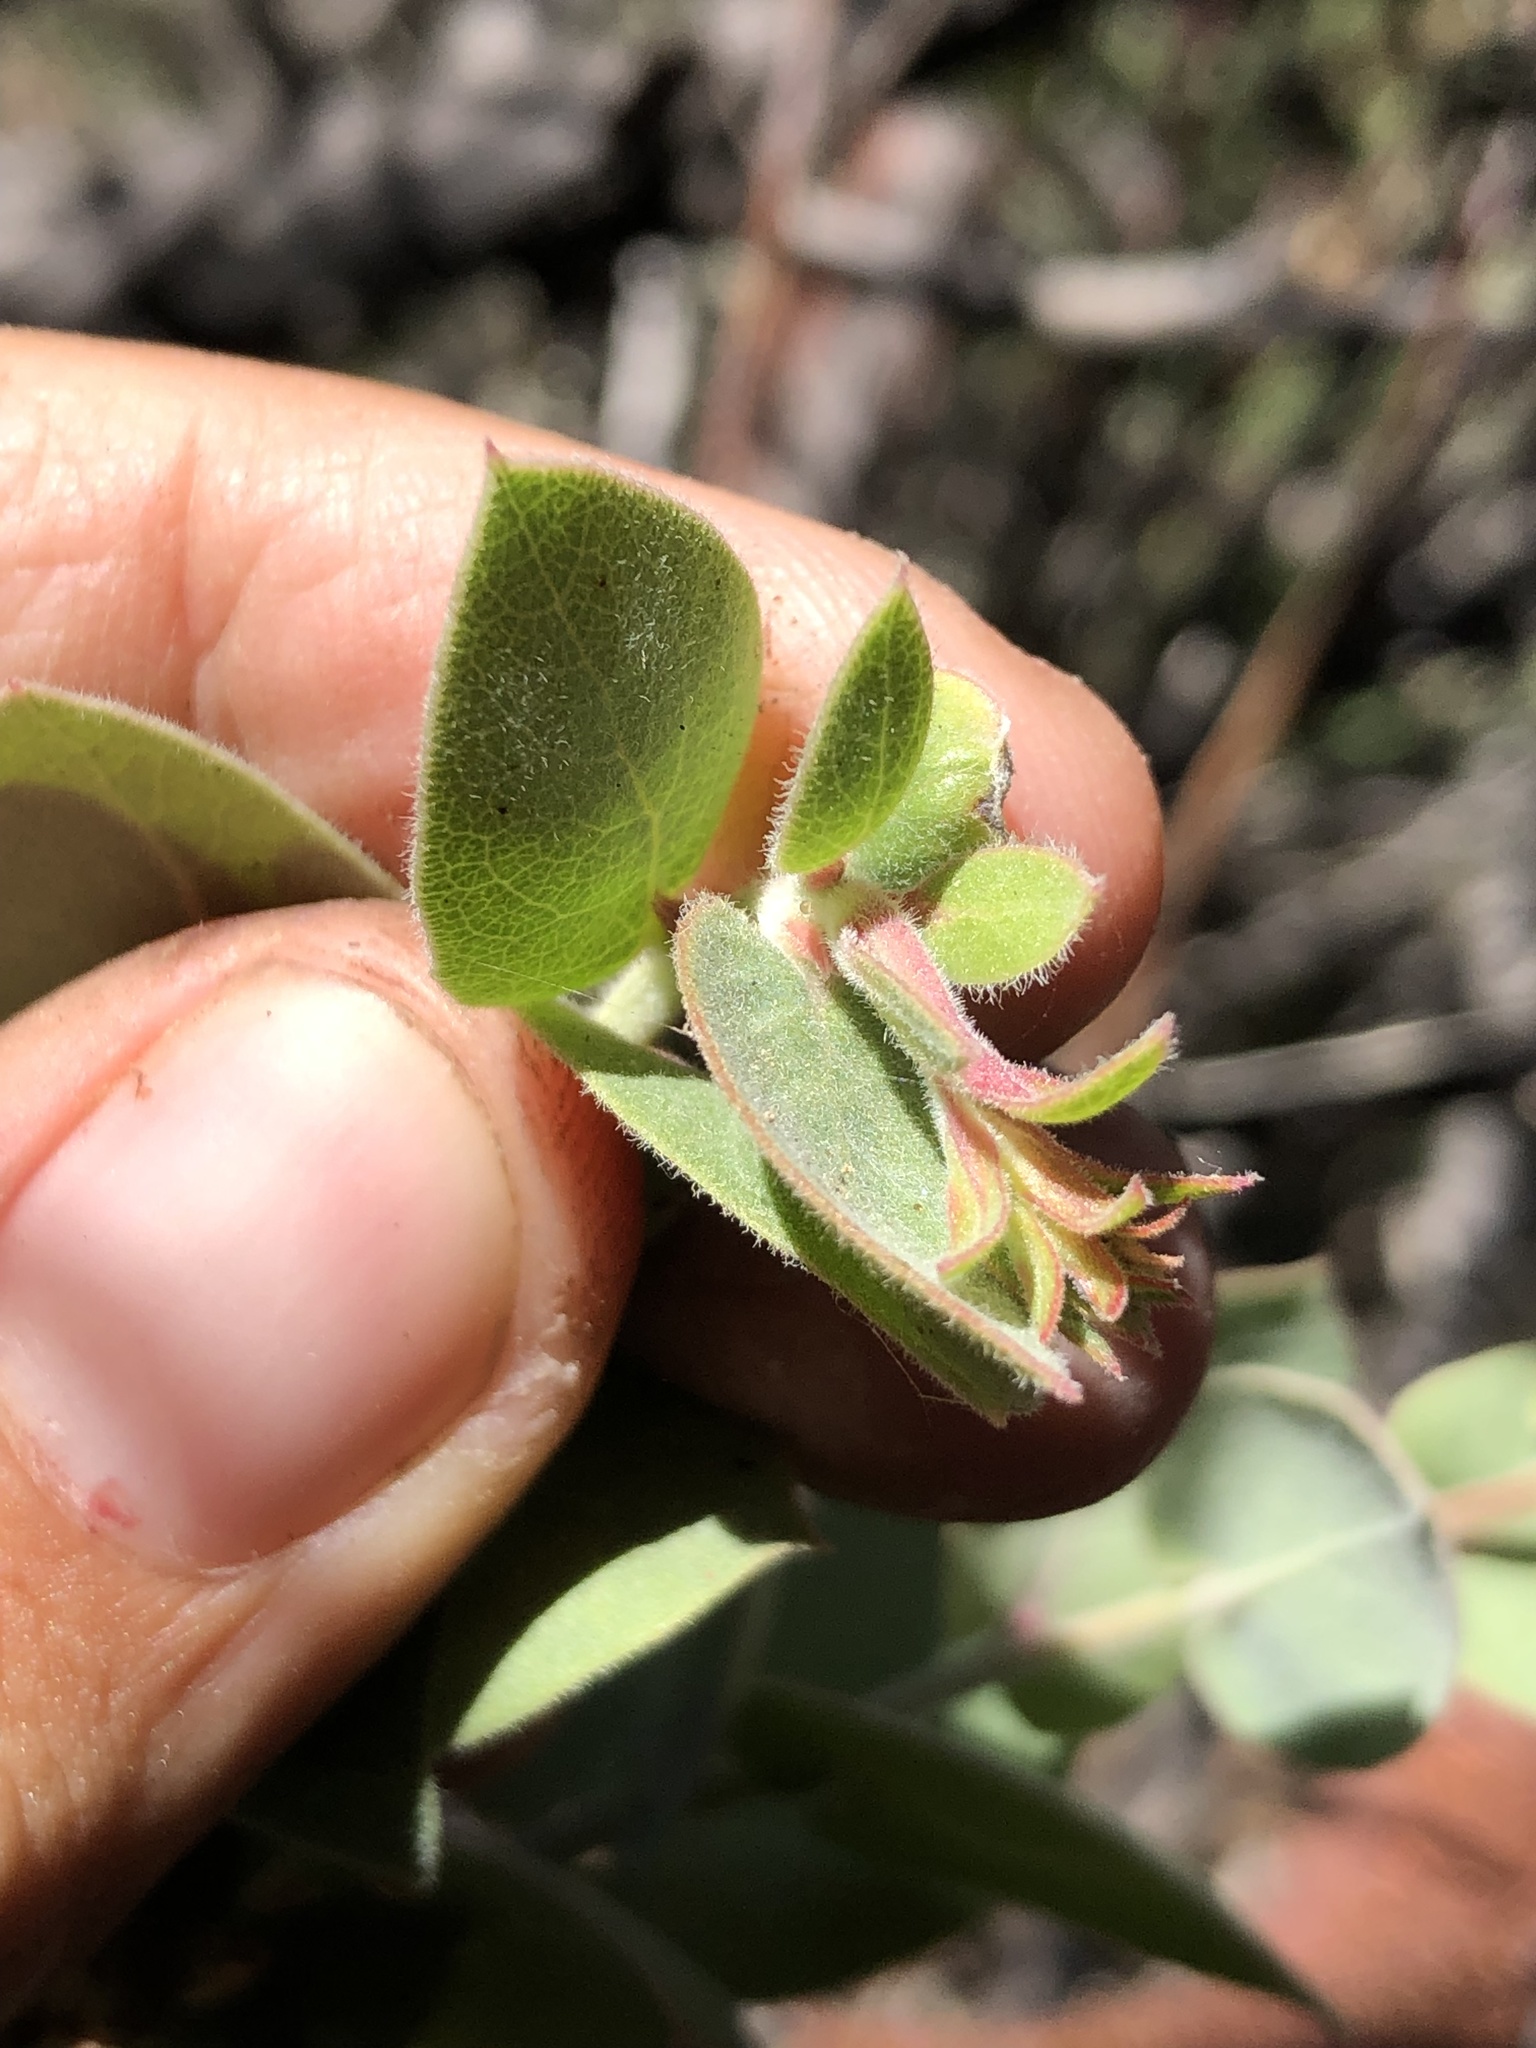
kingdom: Plantae
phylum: Tracheophyta
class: Magnoliopsida
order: Ericales
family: Ericaceae
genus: Arctostaphylos
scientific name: Arctostaphylos luciana
